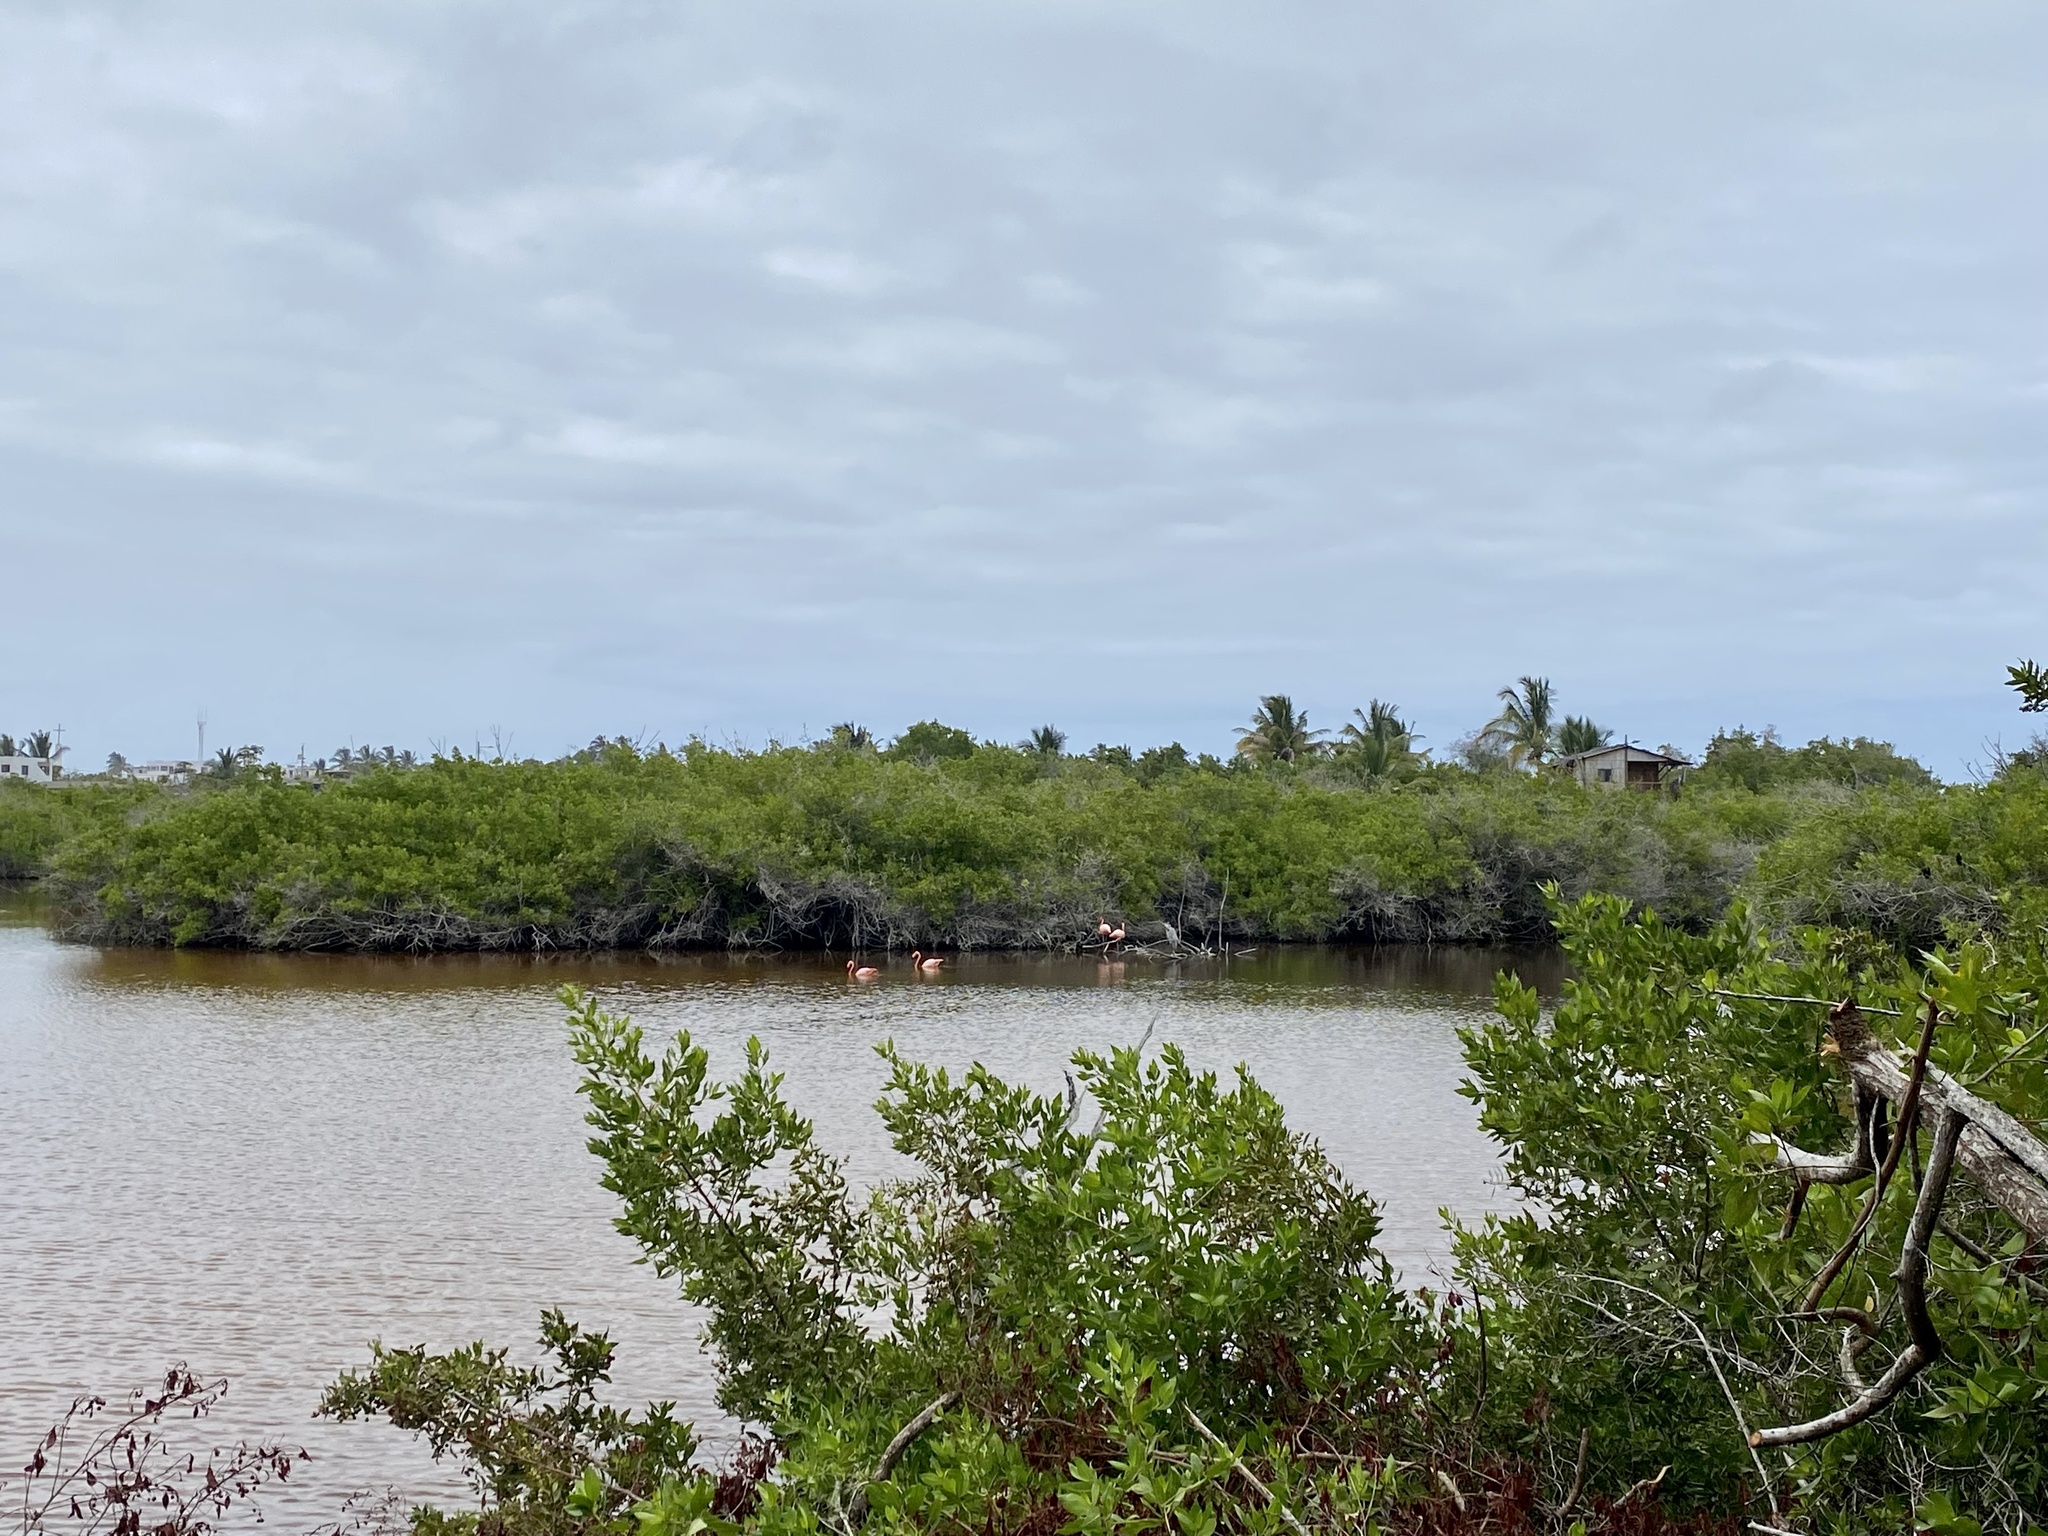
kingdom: Animalia
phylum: Chordata
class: Aves
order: Phoenicopteriformes
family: Phoenicopteridae
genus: Phoenicopterus
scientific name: Phoenicopterus ruber
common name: American flamingo
